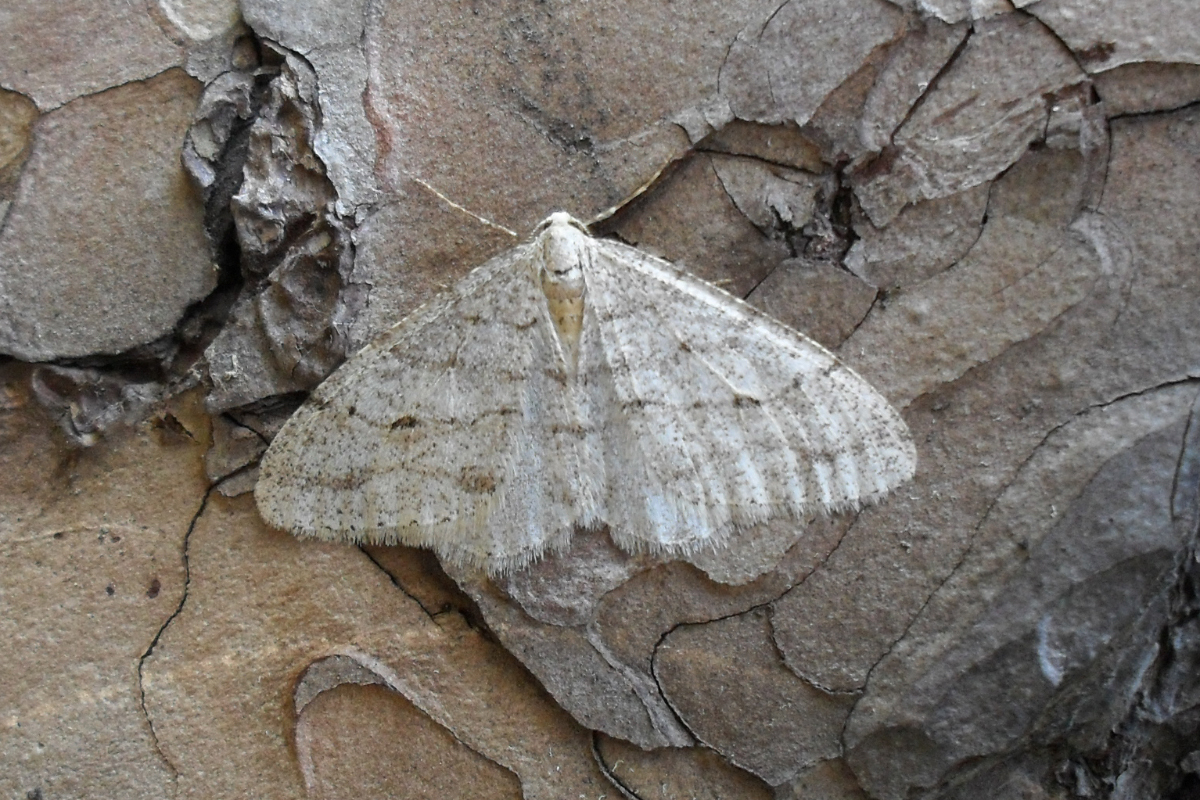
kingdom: Animalia
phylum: Arthropoda
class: Insecta
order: Lepidoptera
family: Geometridae
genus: Larerannis
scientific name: Larerannis orthogrammaria
